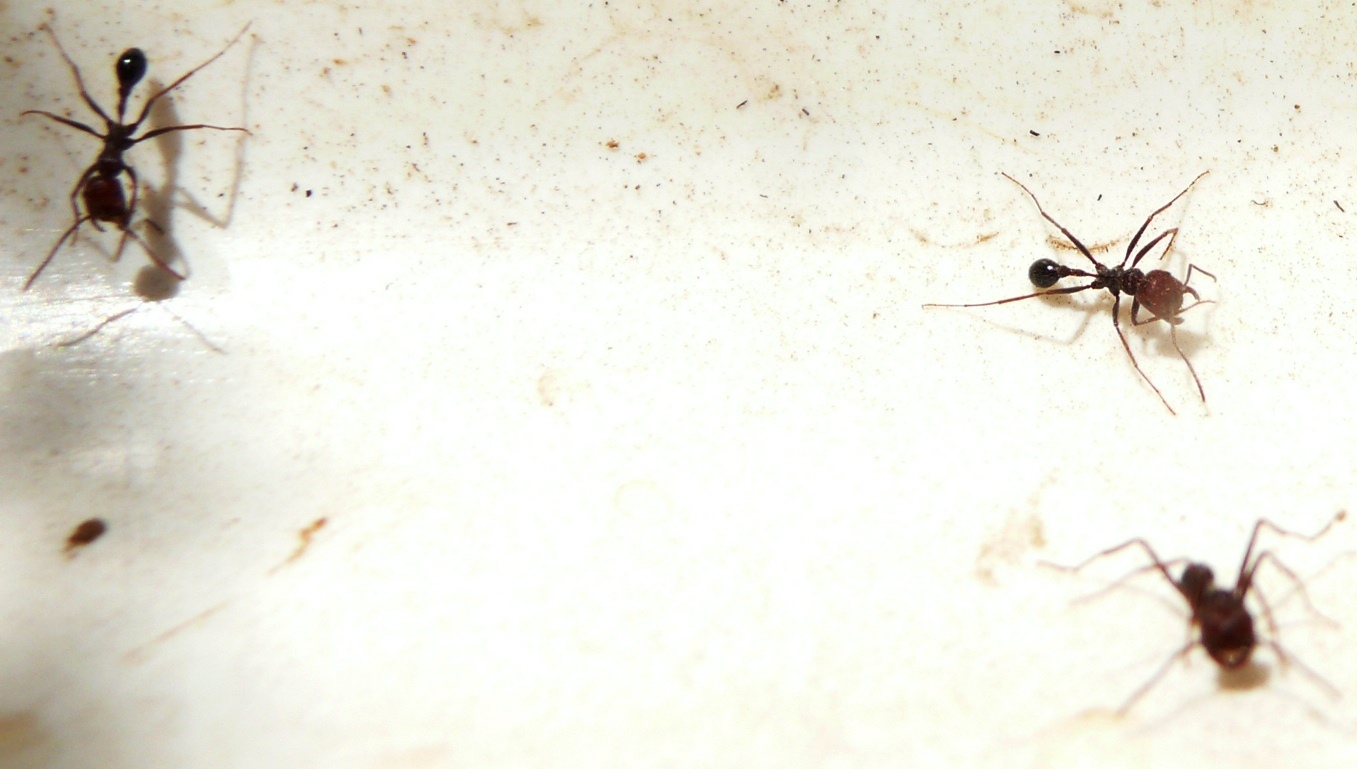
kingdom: Animalia
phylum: Arthropoda
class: Insecta
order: Hymenoptera
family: Formicidae
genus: Ocymyrmex
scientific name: Ocymyrmex barbiger
